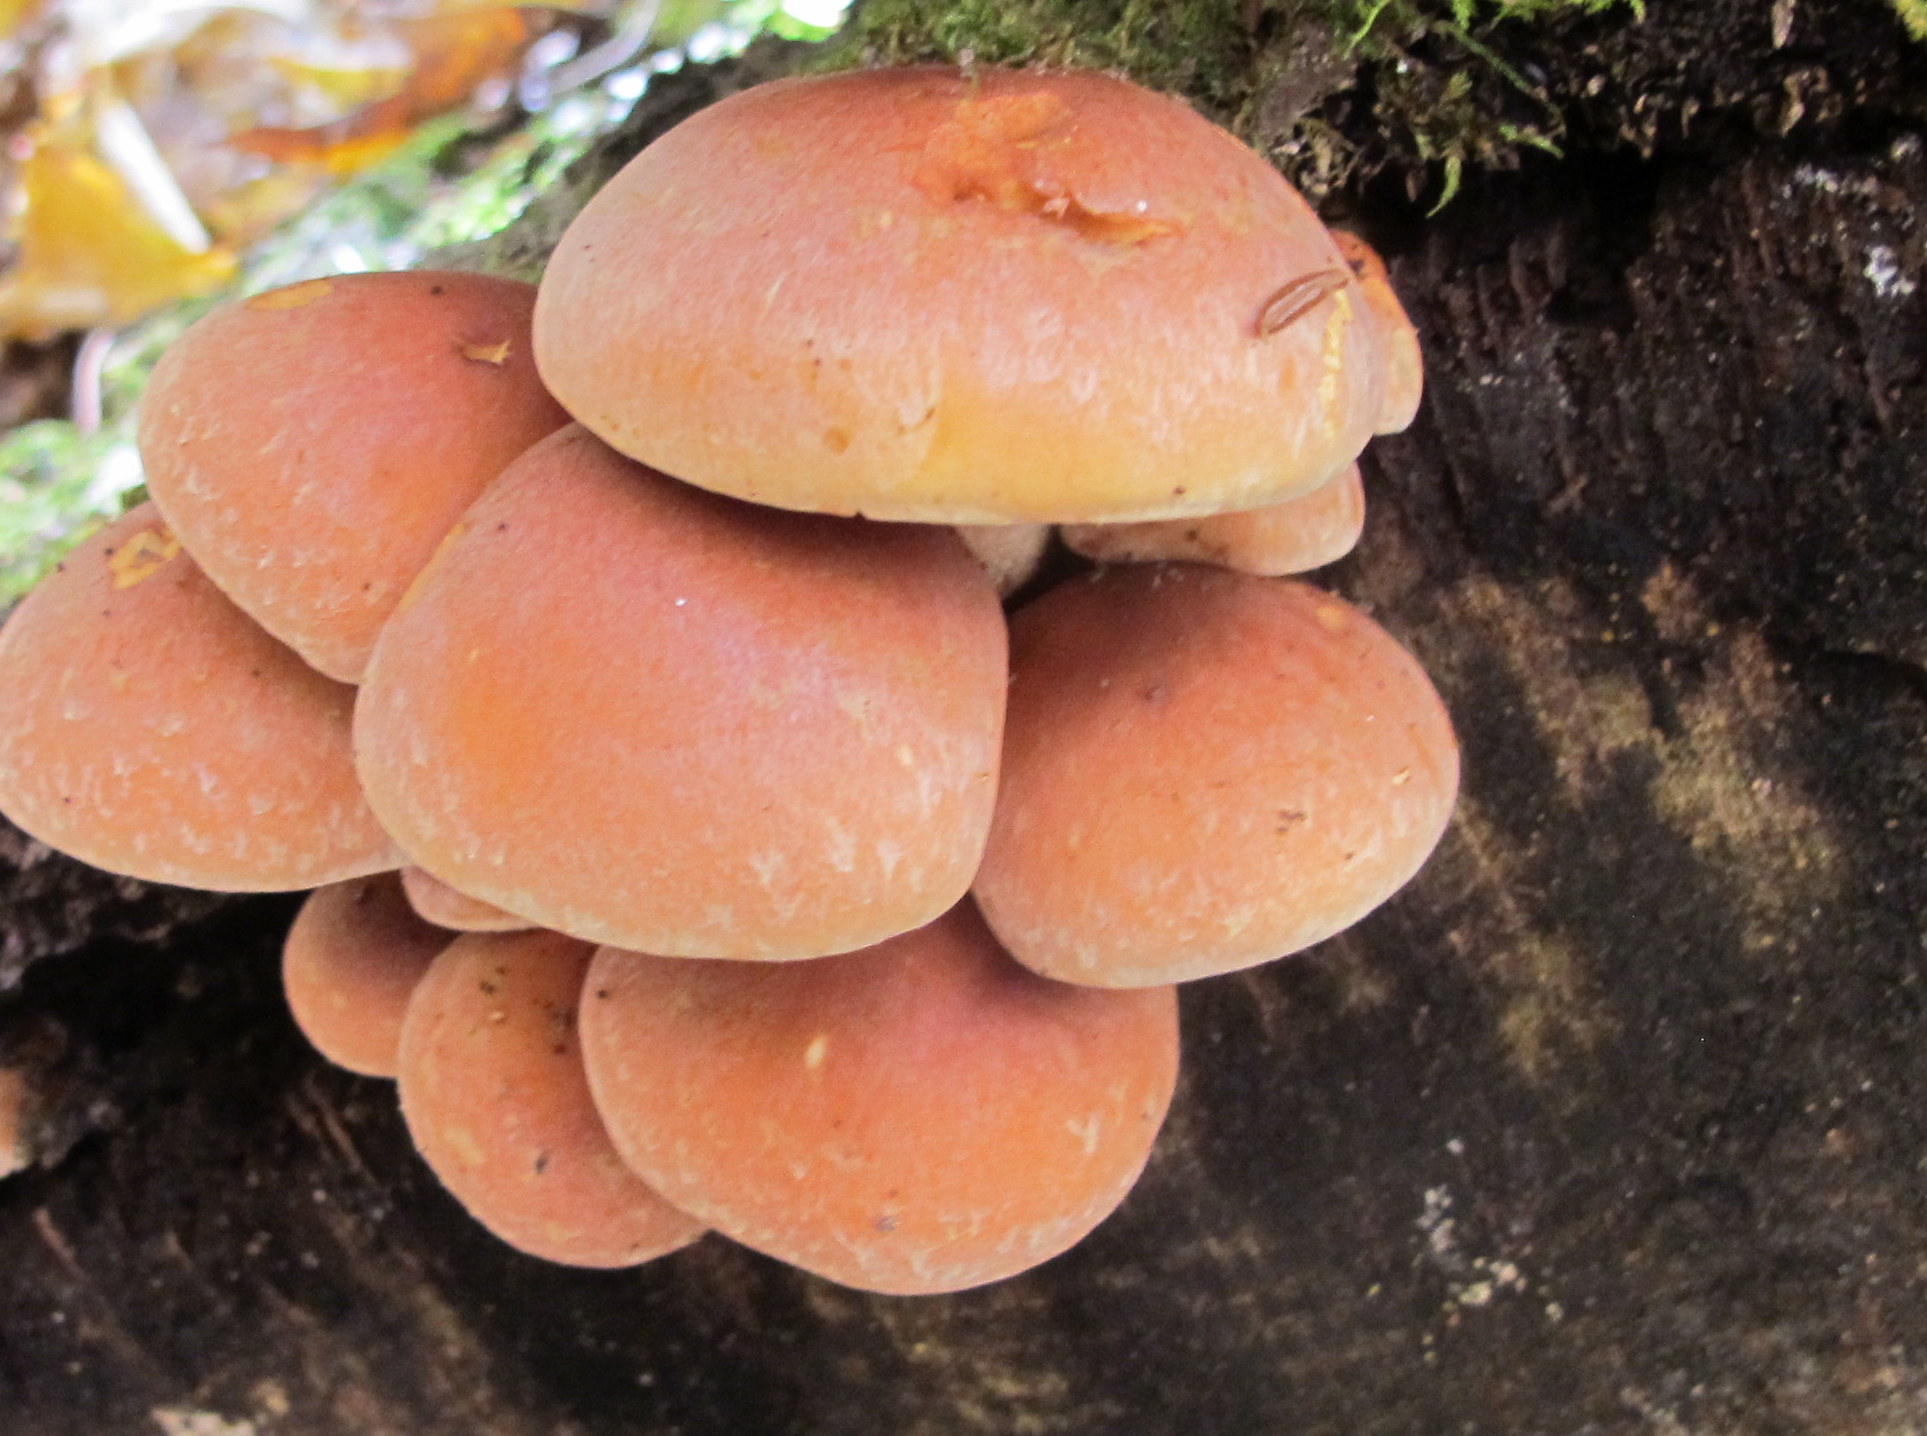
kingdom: Fungi
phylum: Basidiomycota
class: Agaricomycetes
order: Agaricales
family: Strophariaceae
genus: Hypholoma
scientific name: Hypholoma lateritium
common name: Brick caps
